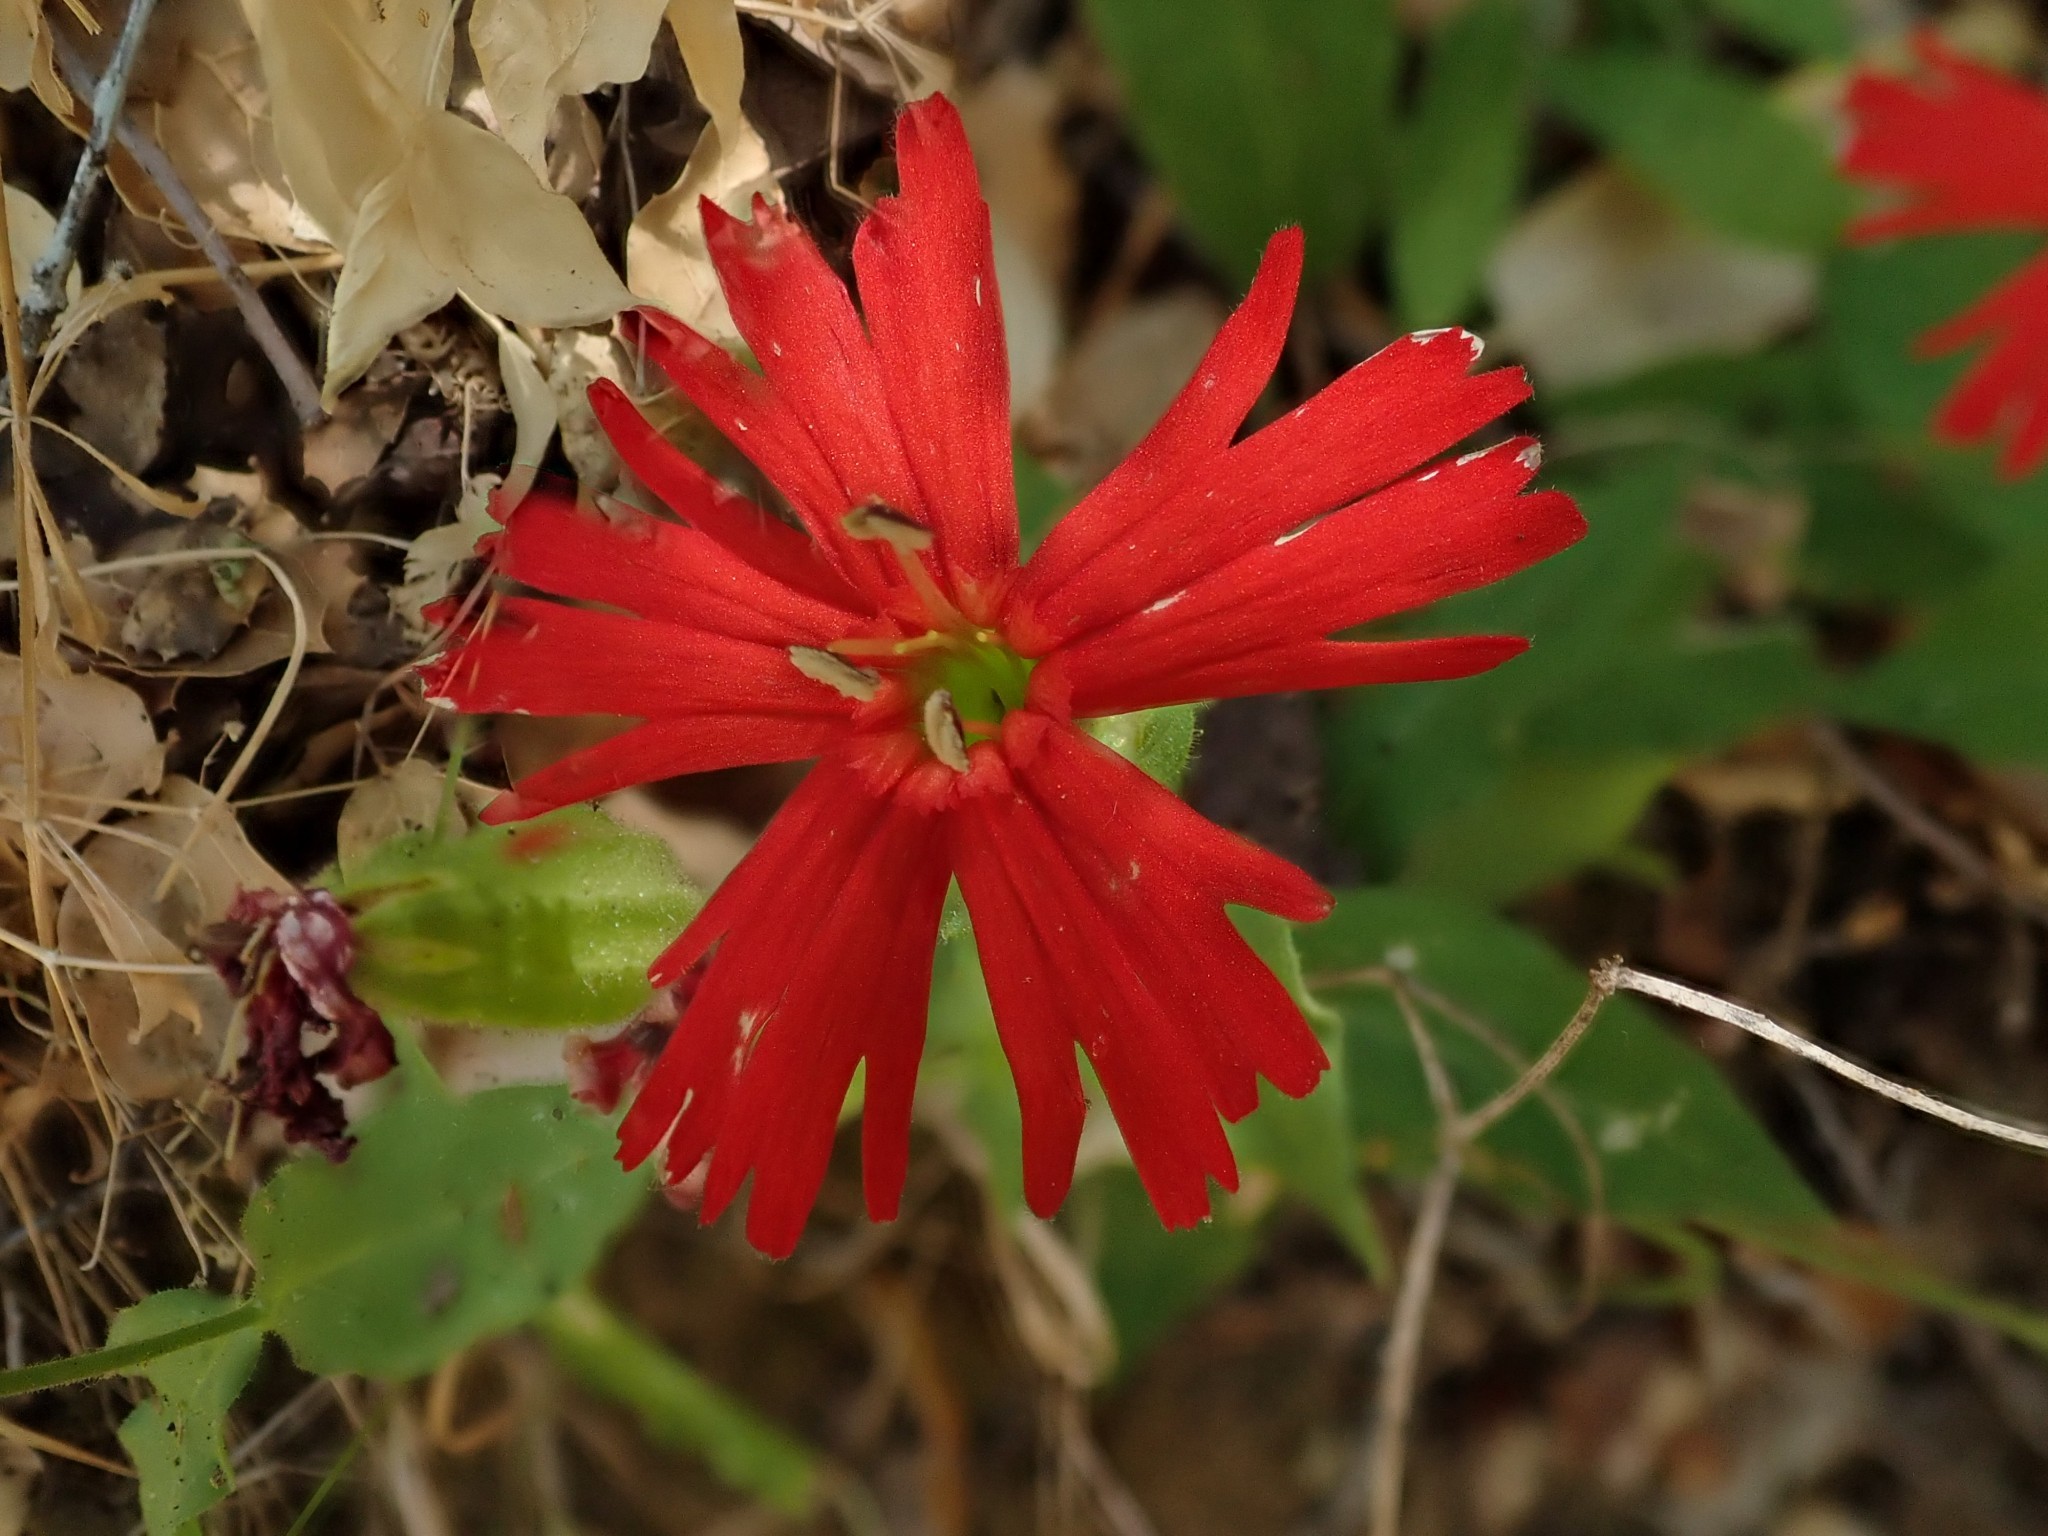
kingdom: Plantae
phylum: Tracheophyta
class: Magnoliopsida
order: Caryophyllales
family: Caryophyllaceae
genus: Silene
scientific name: Silene laciniata
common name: Indian-pink
